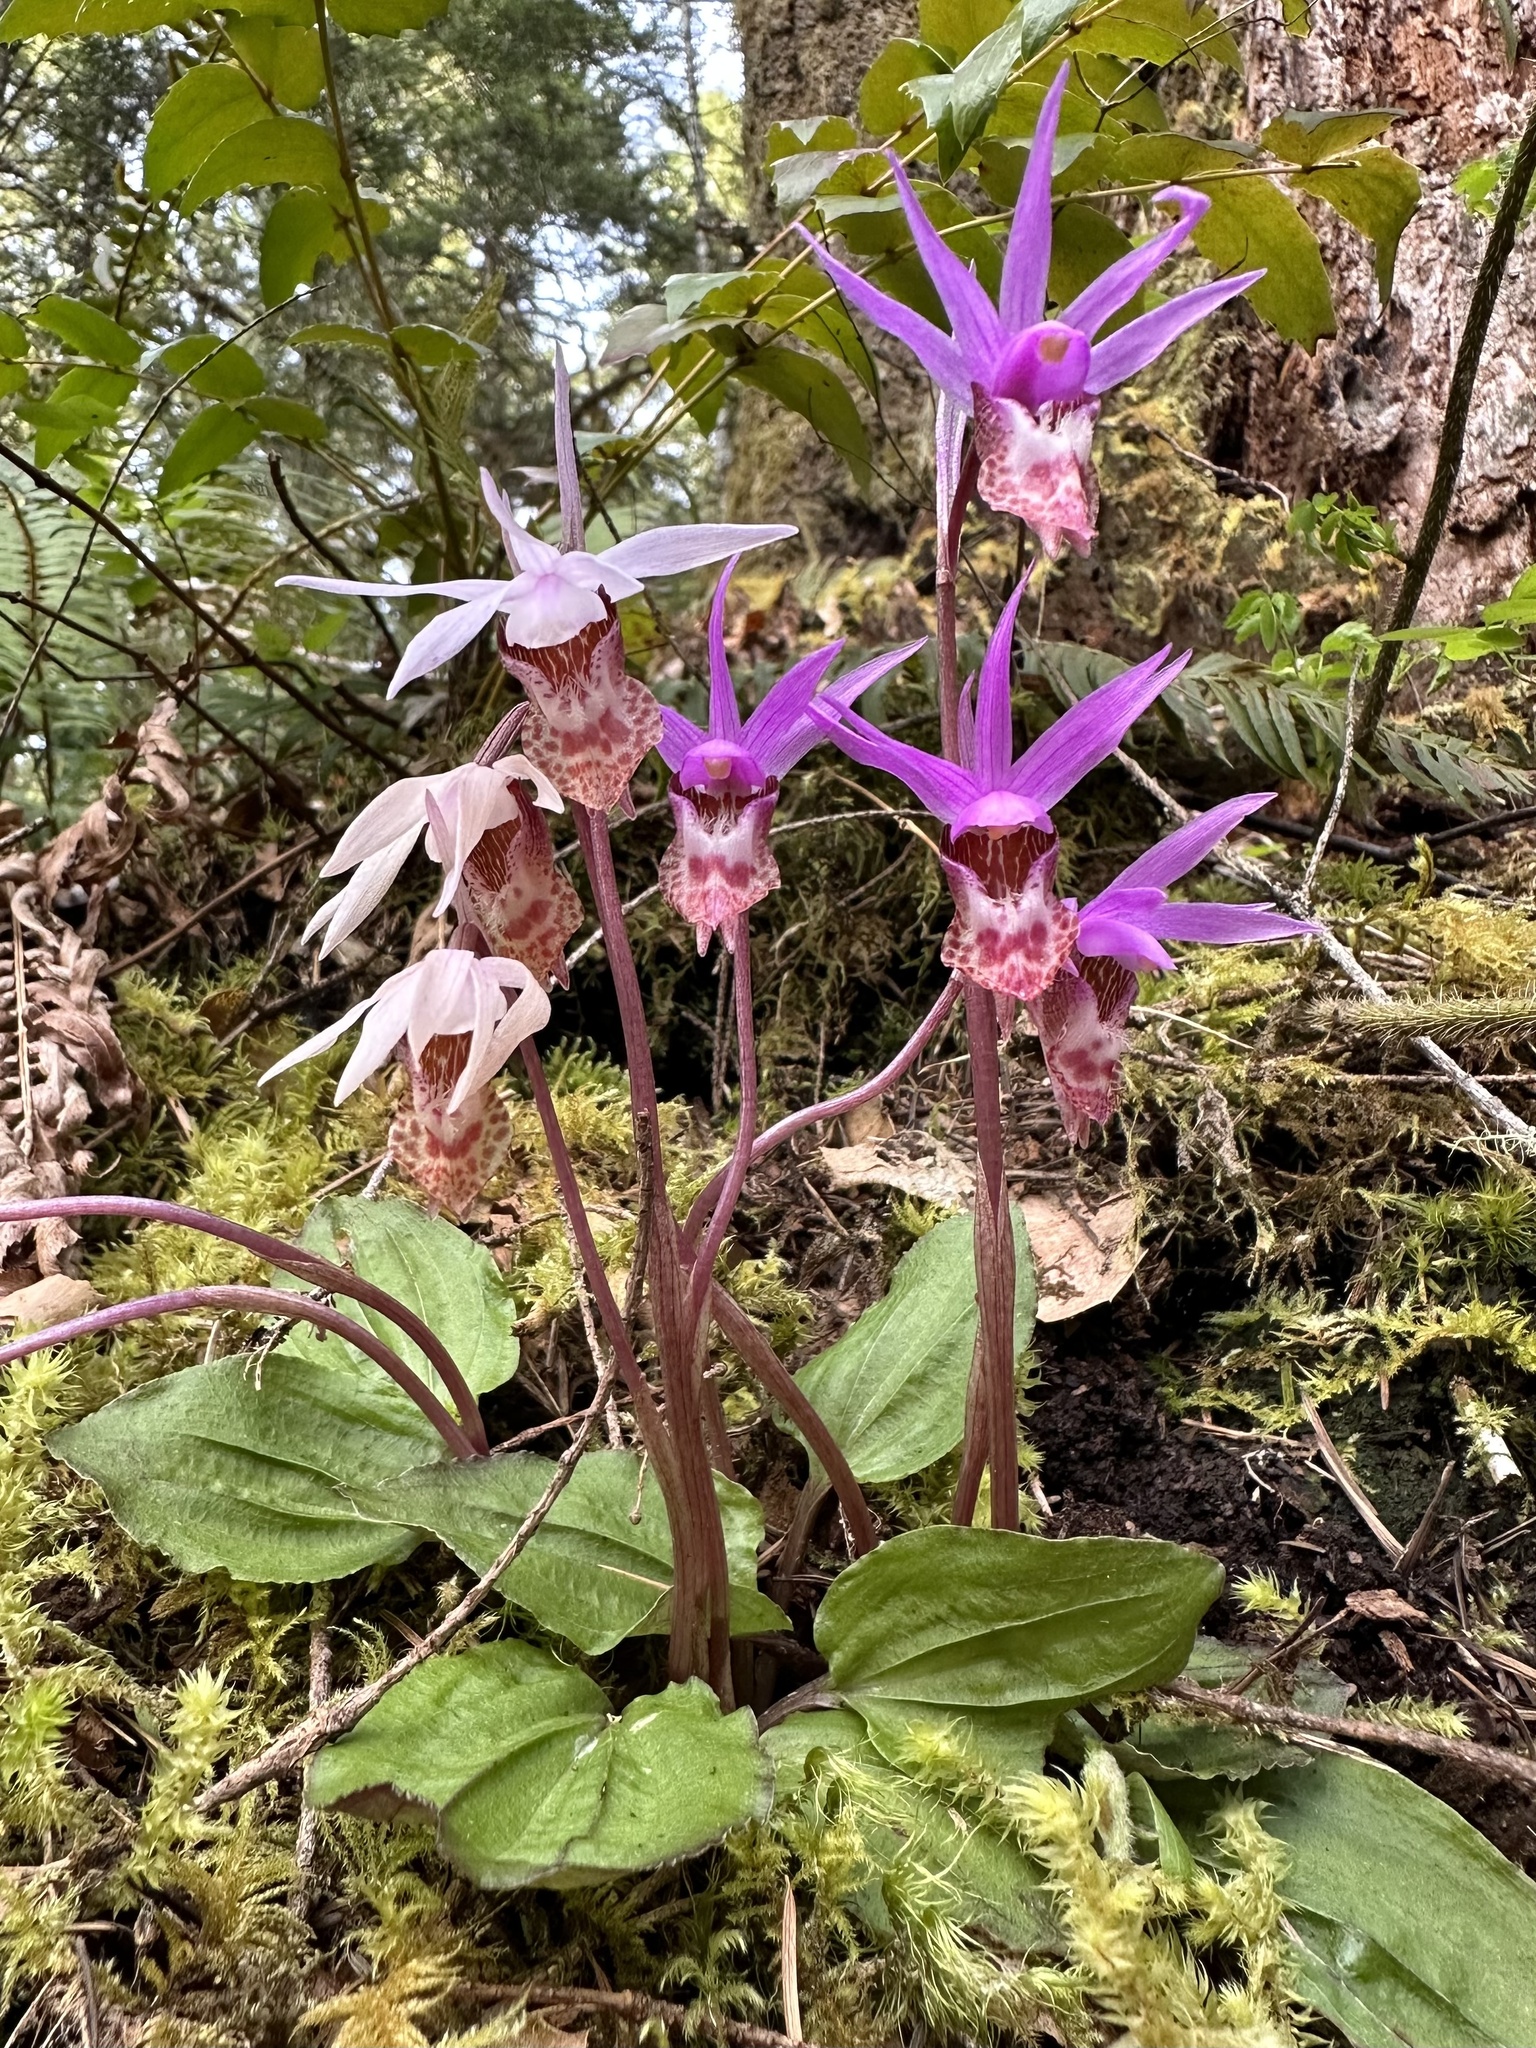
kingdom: Plantae
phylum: Tracheophyta
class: Liliopsida
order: Asparagales
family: Orchidaceae
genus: Calypso
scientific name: Calypso bulbosa
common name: Calypso
